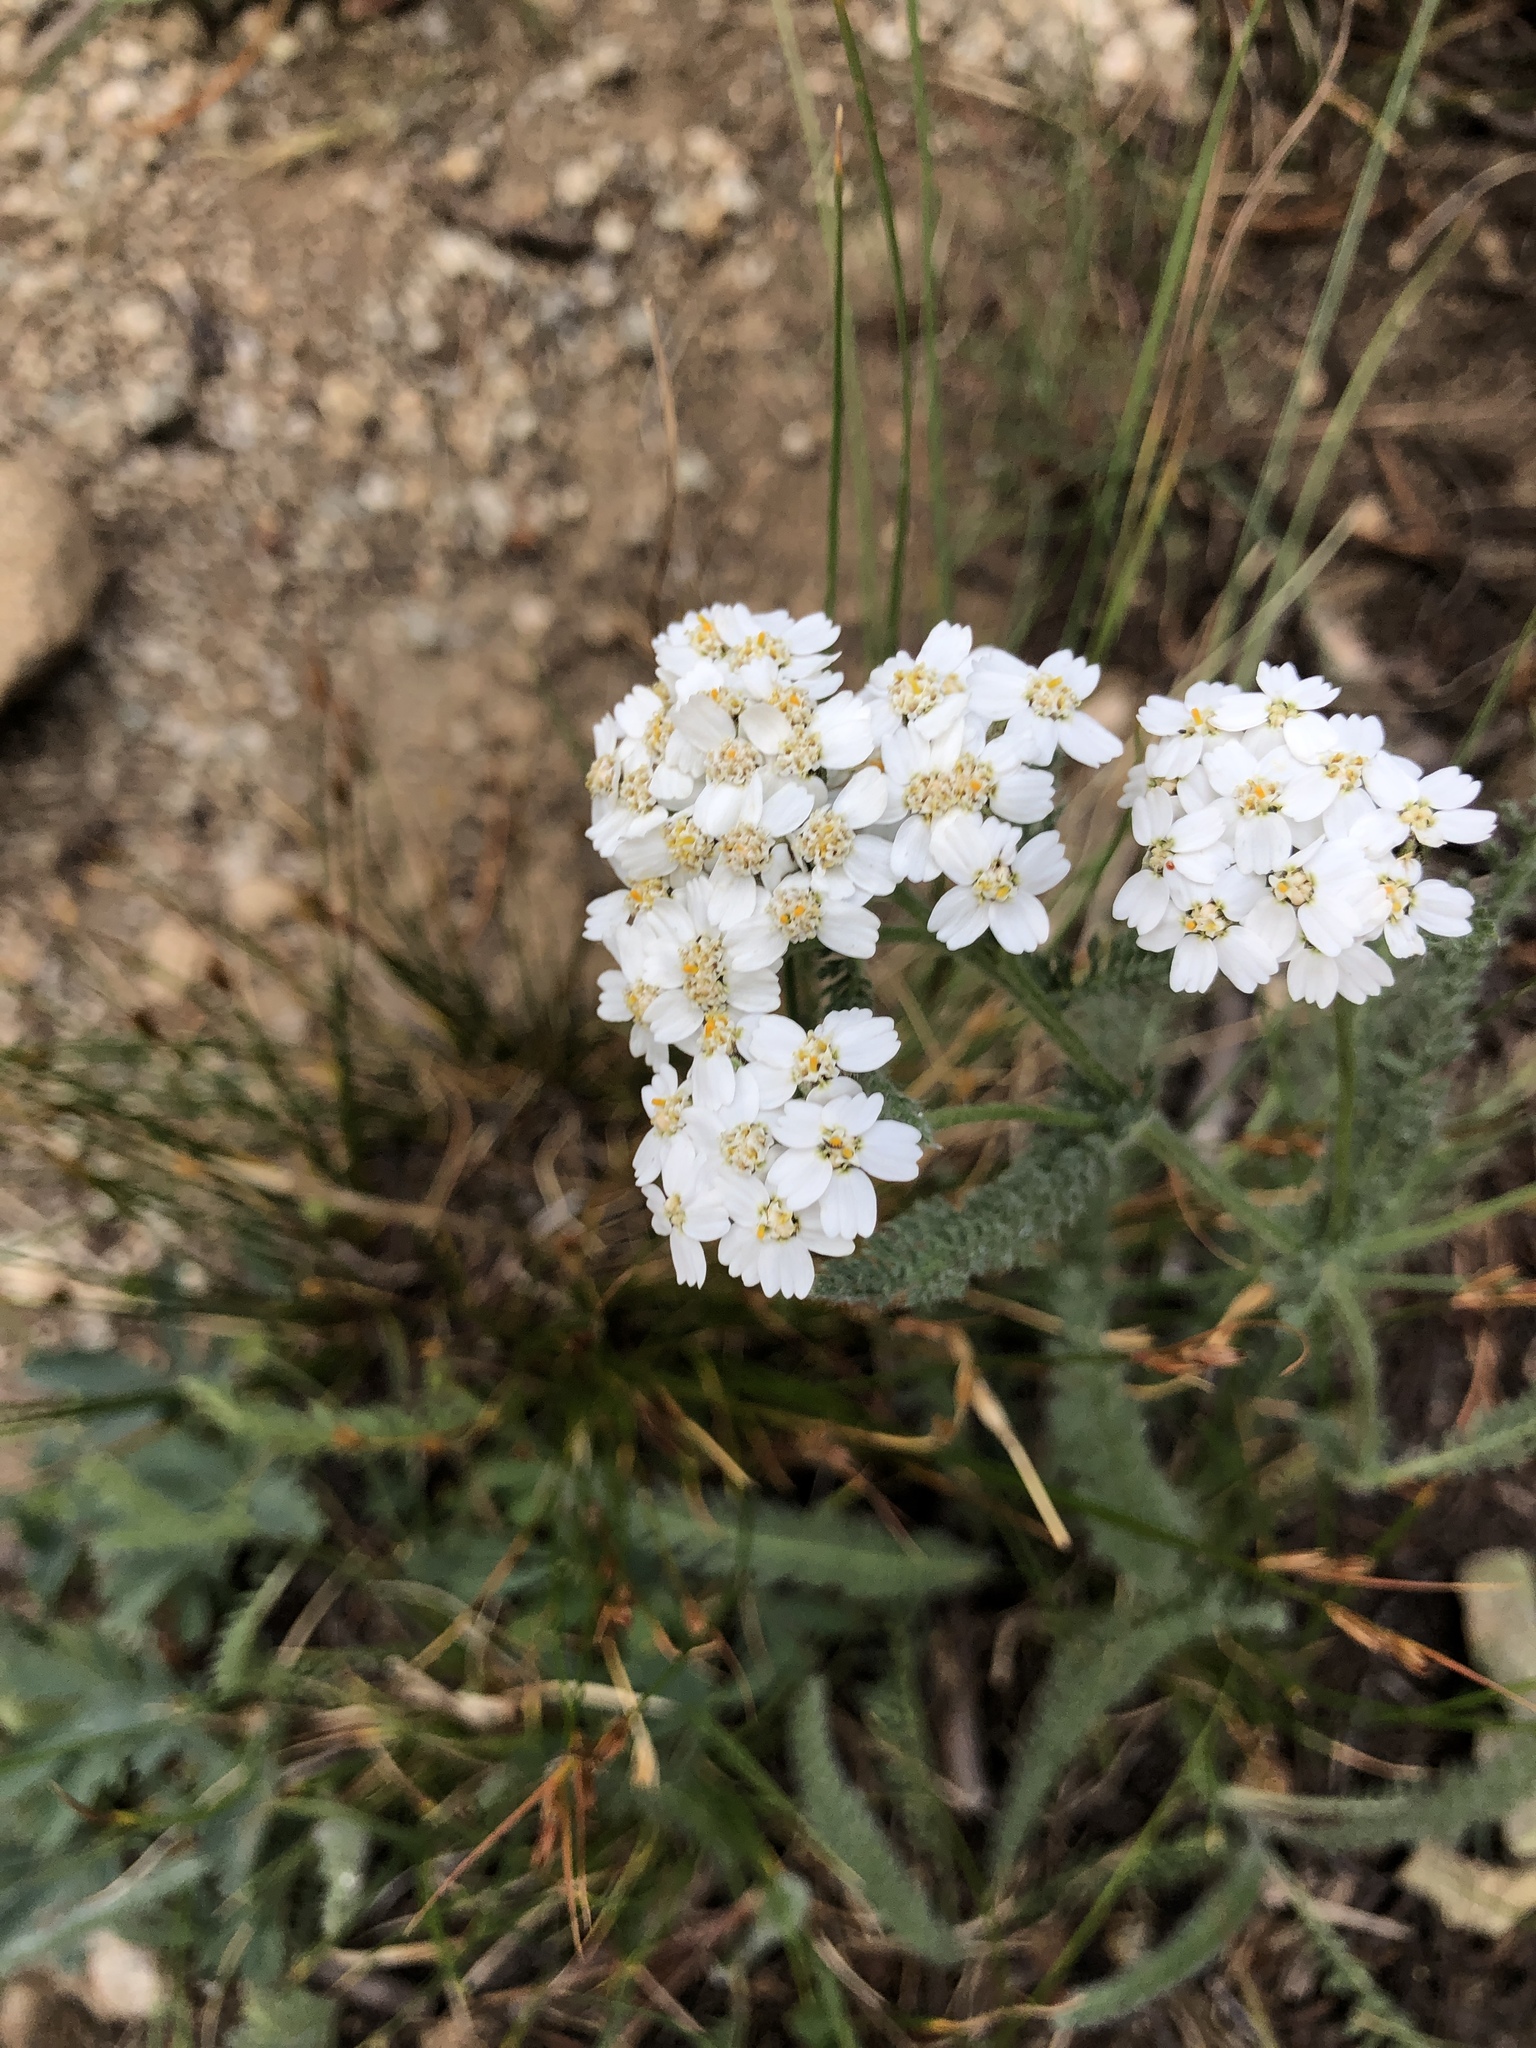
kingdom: Plantae
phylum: Tracheophyta
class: Magnoliopsida
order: Asterales
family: Asteraceae
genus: Achillea
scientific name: Achillea millefolium
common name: Yarrow
